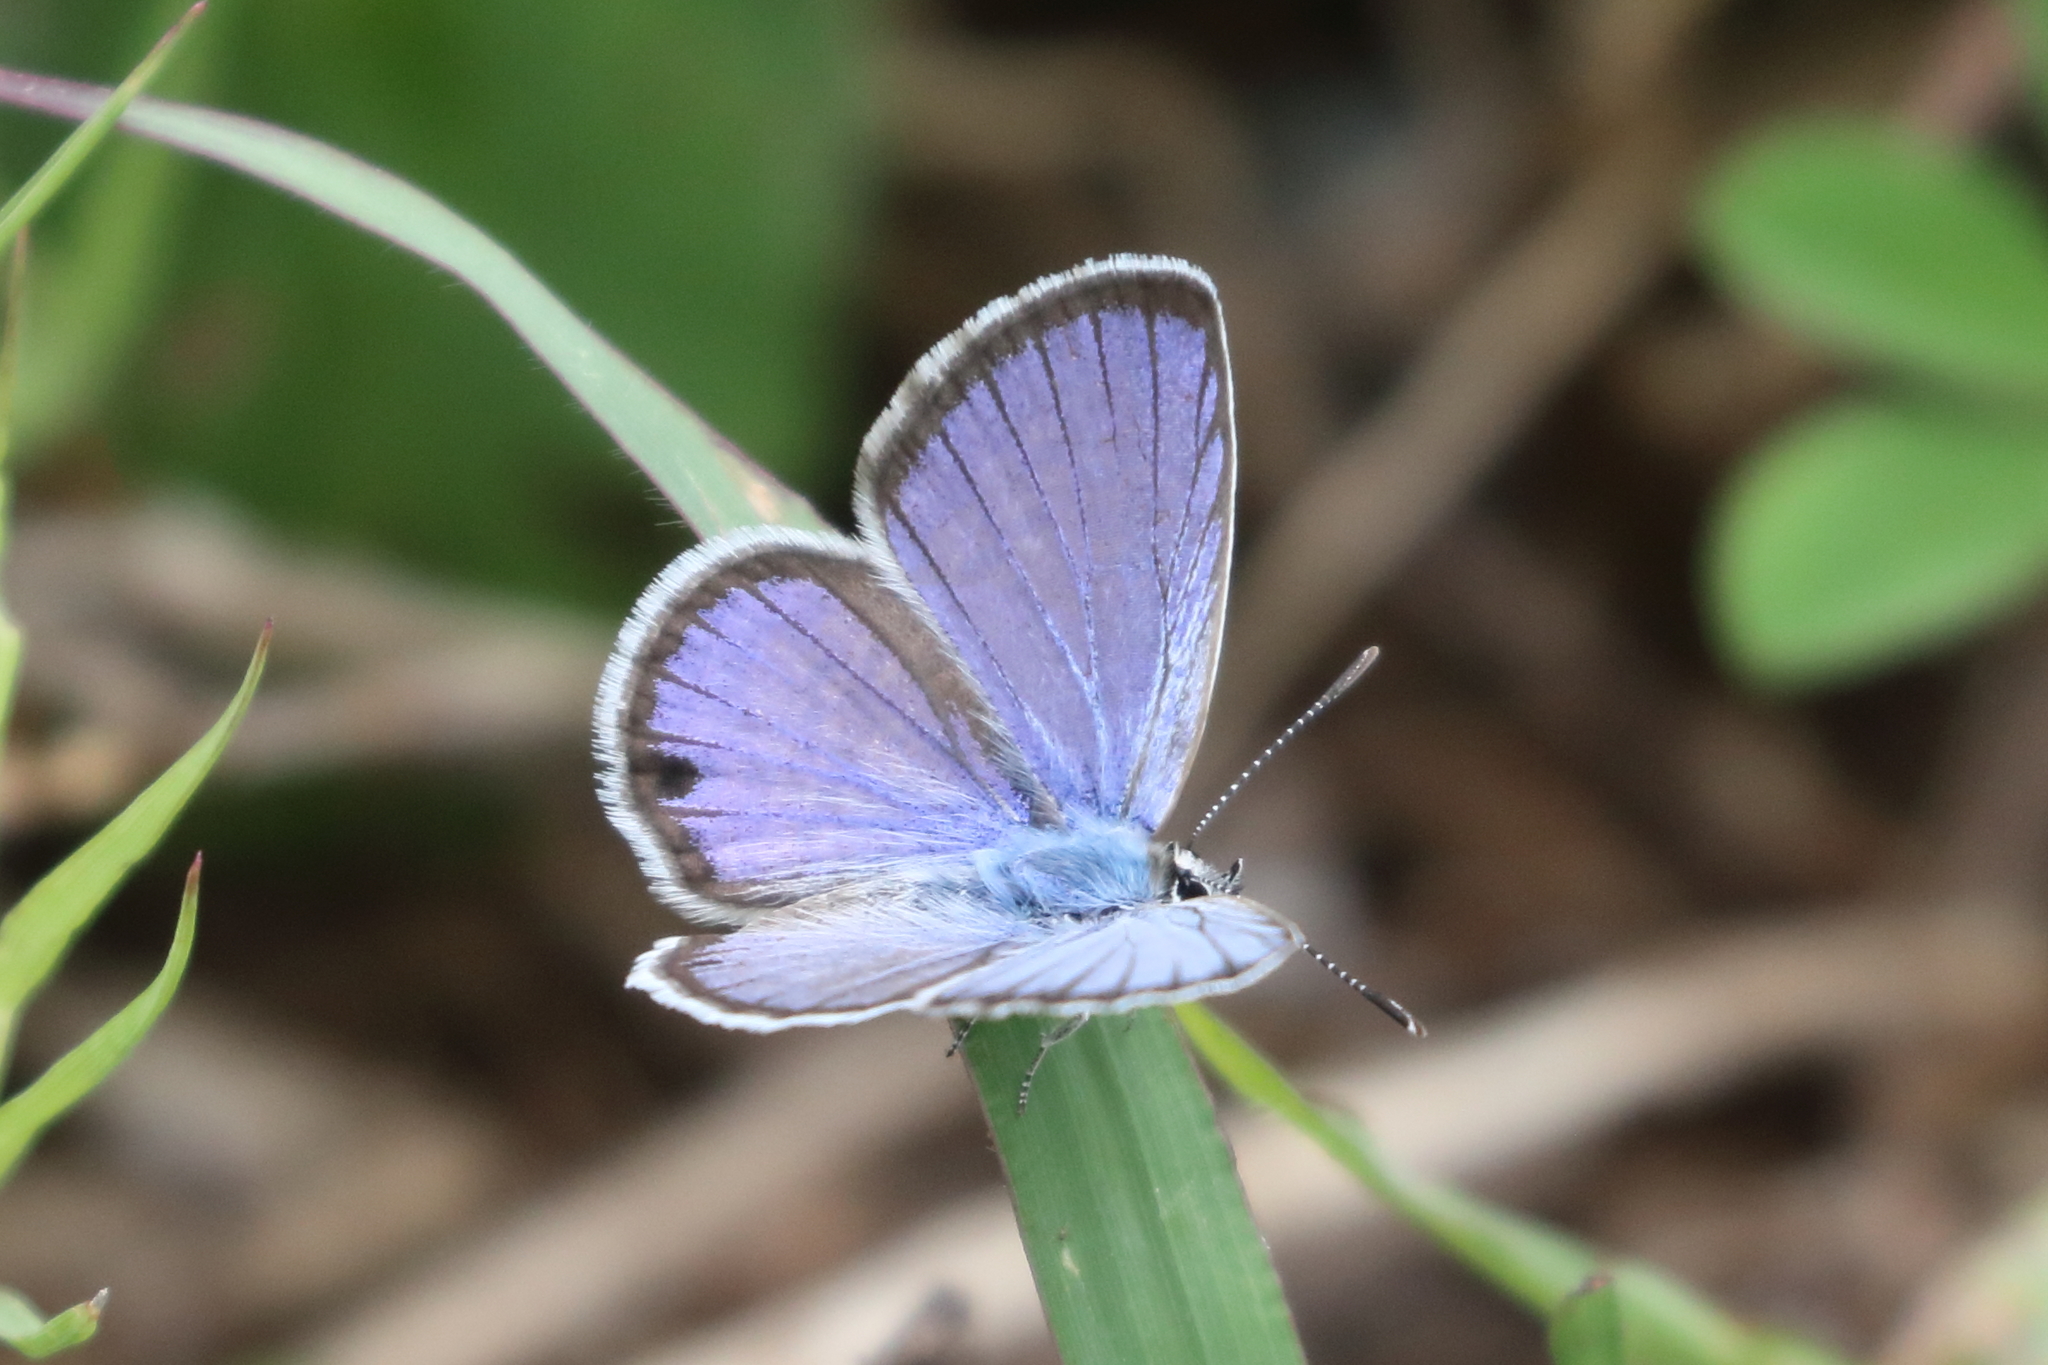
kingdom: Animalia
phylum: Arthropoda
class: Insecta
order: Lepidoptera
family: Lycaenidae
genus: Hemiargus
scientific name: Hemiargus ceraunus
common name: Ceraunus blue
